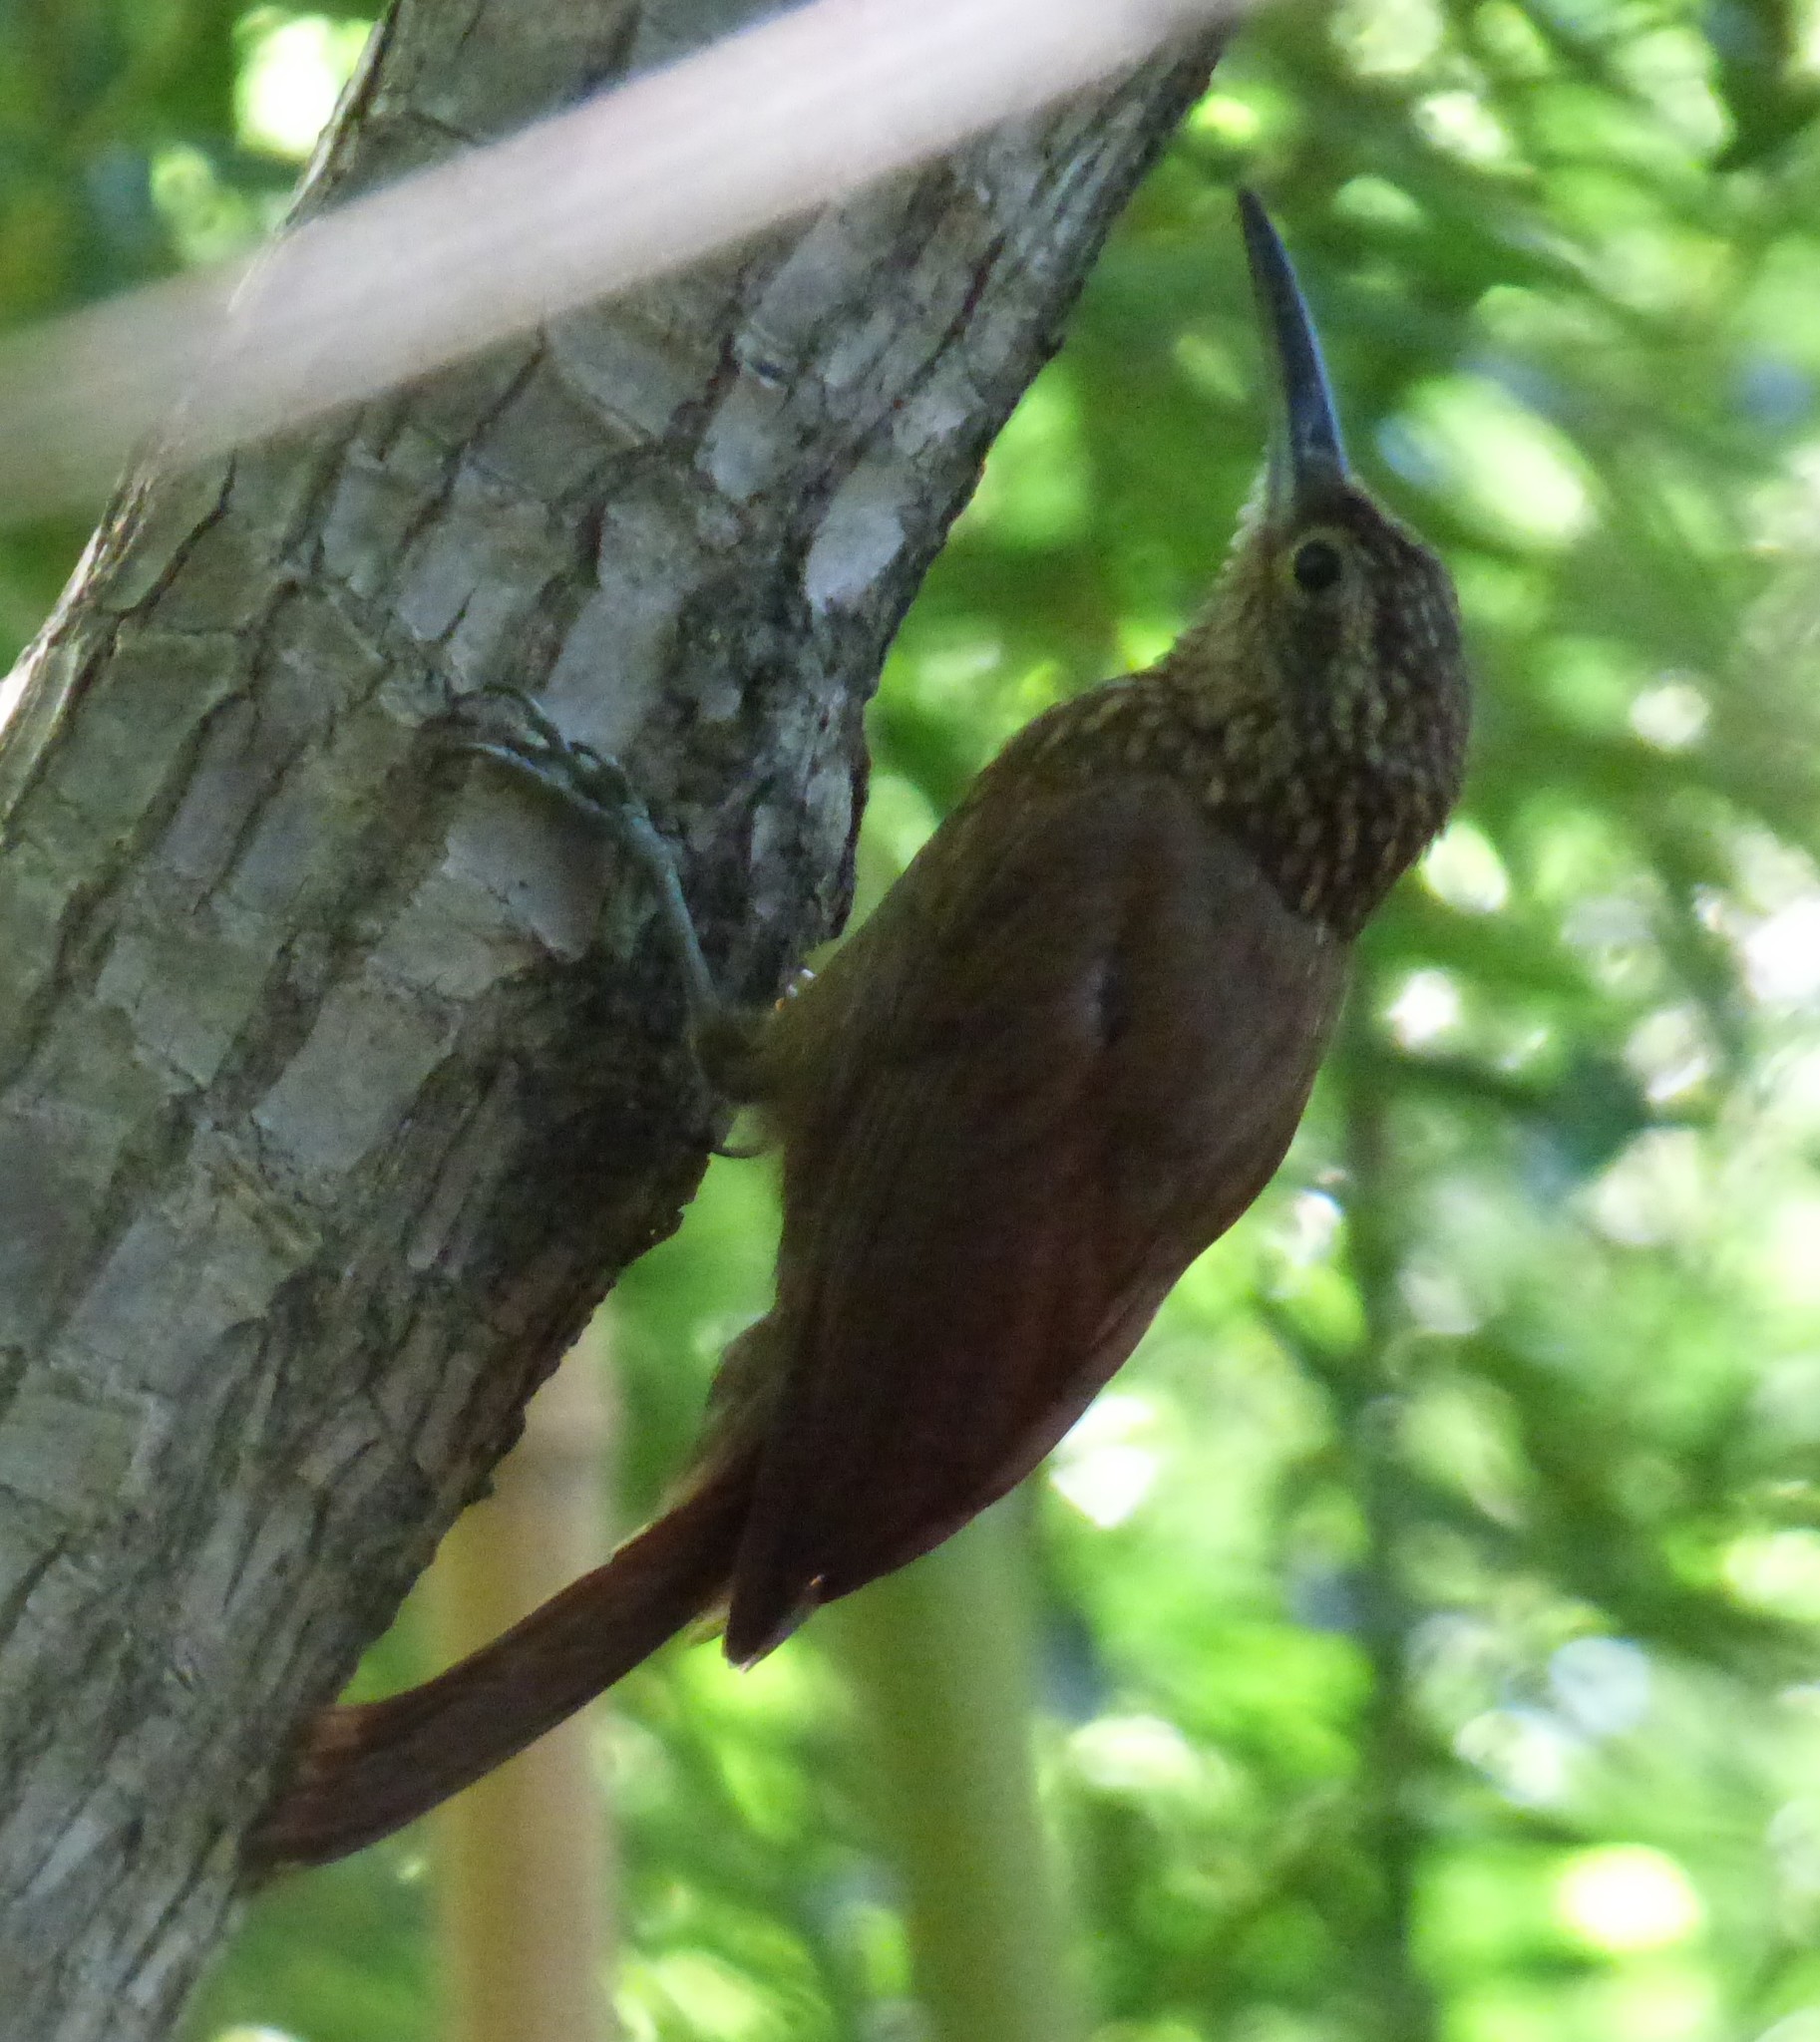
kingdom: Animalia
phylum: Chordata
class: Aves
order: Passeriformes
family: Furnariidae
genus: Xiphorhynchus
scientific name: Xiphorhynchus susurrans
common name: Cocoa woodcreeper
